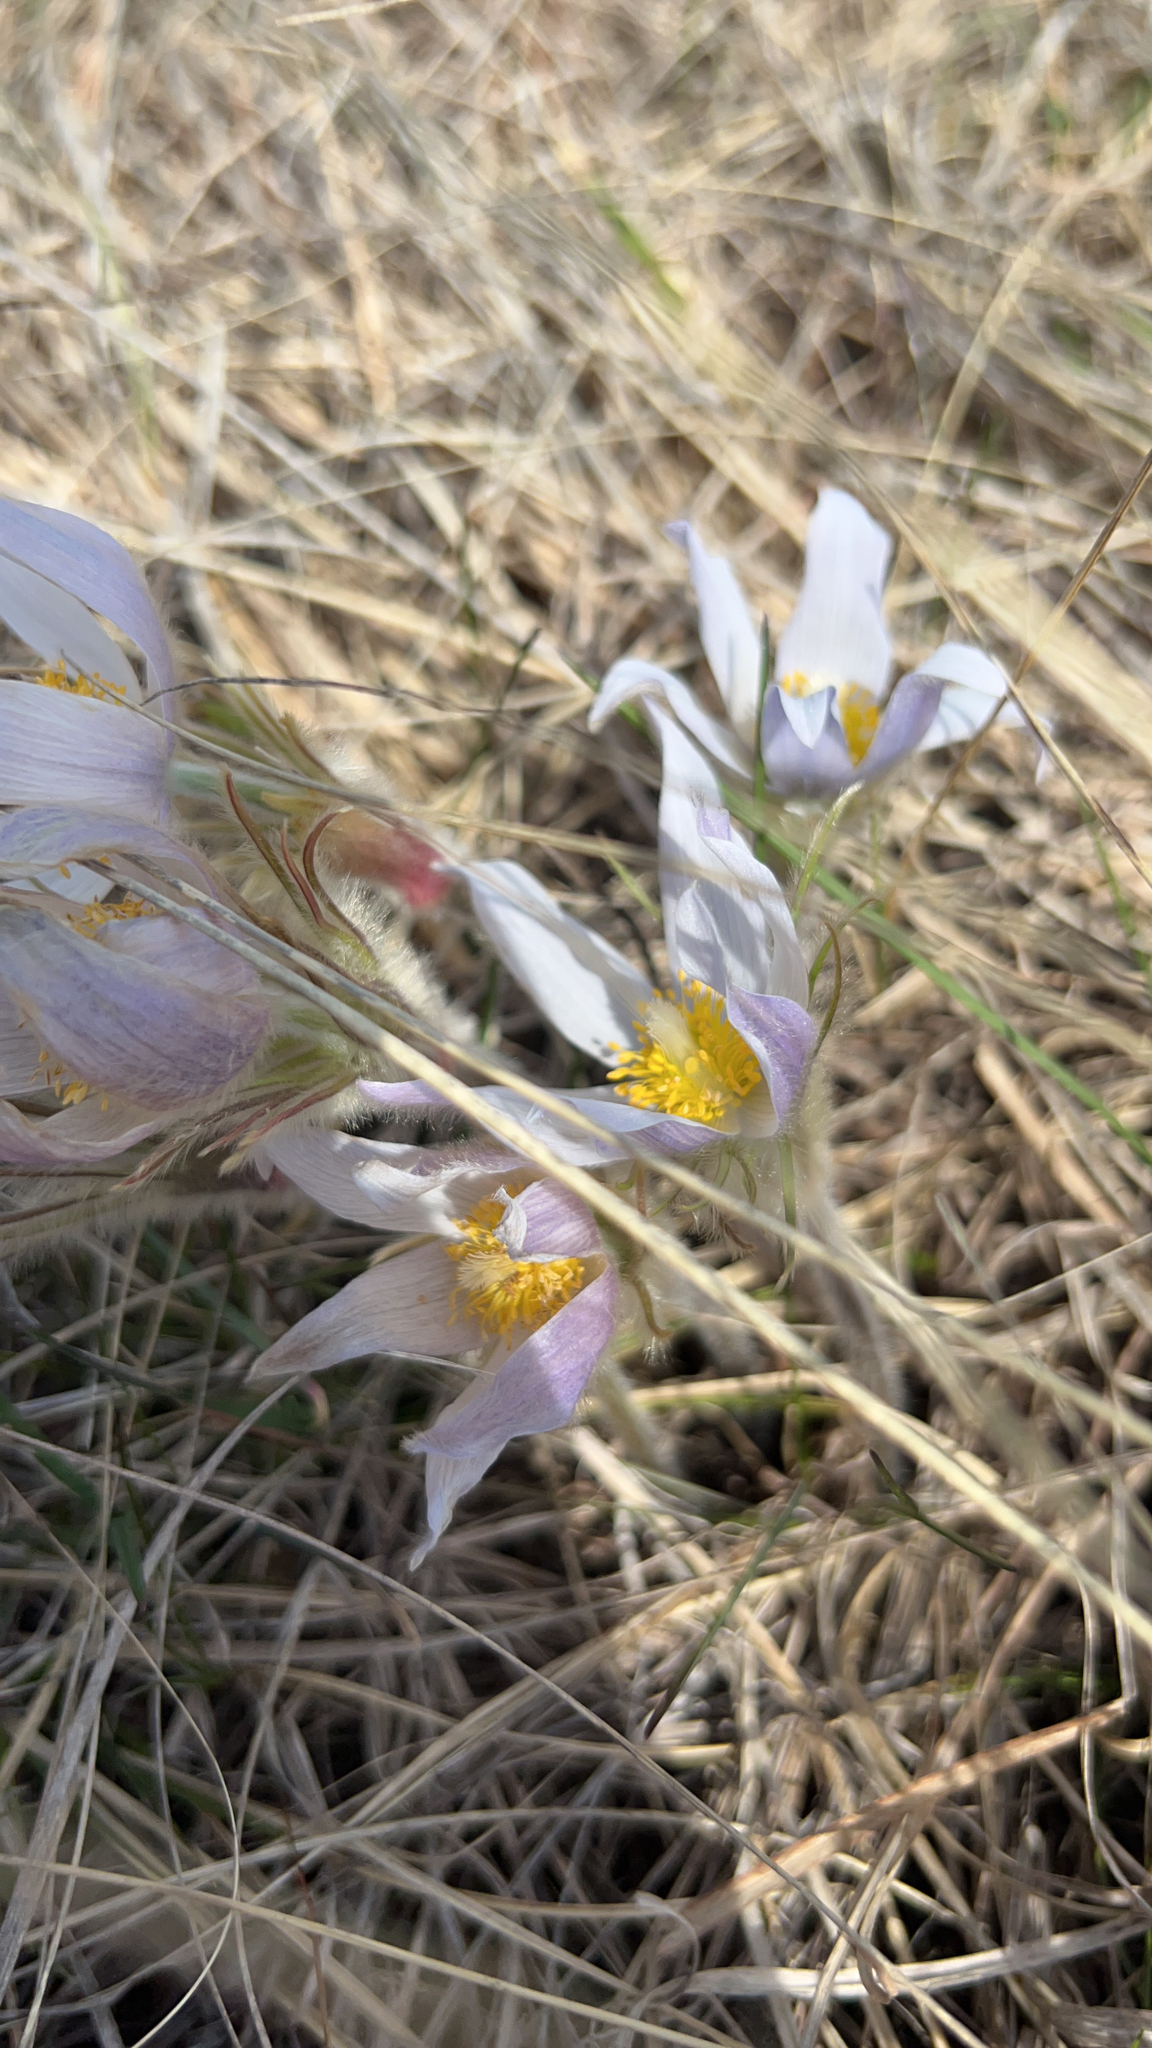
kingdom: Plantae
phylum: Tracheophyta
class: Magnoliopsida
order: Ranunculales
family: Ranunculaceae
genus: Pulsatilla
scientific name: Pulsatilla nuttalliana
